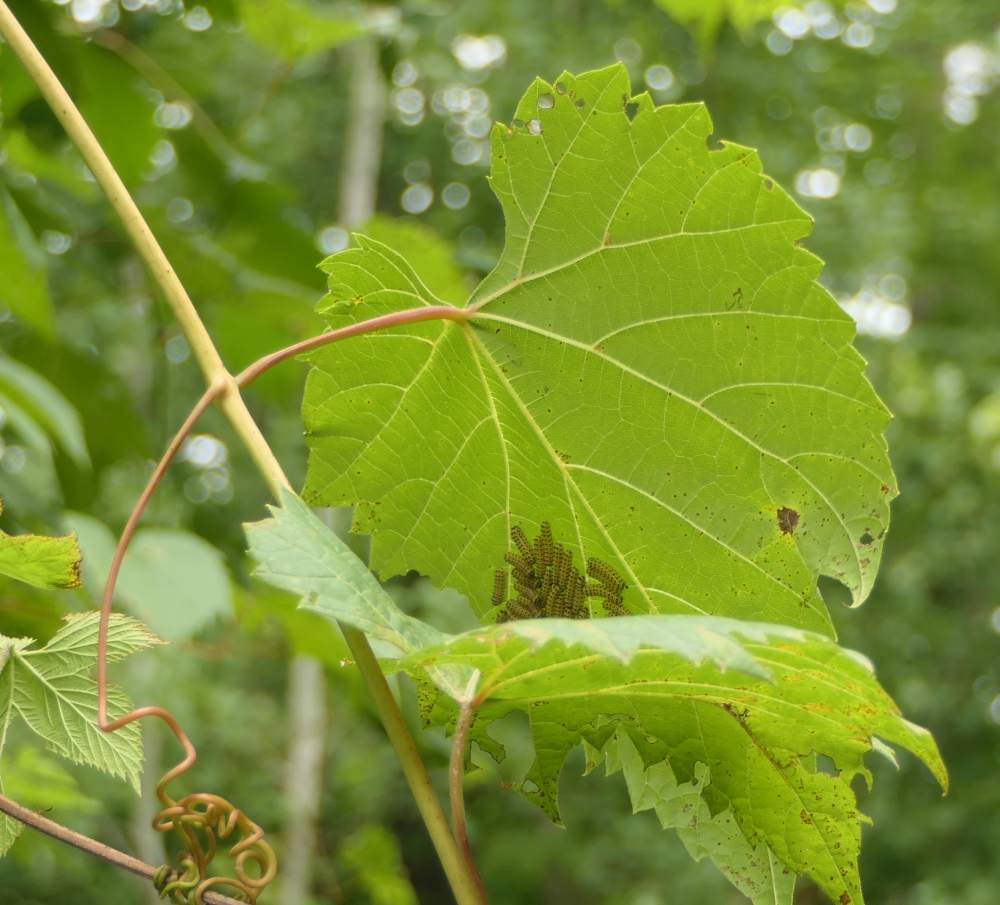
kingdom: Animalia
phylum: Arthropoda
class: Insecta
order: Lepidoptera
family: Zygaenidae
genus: Harrisina
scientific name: Harrisina americana
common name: Grapeleaf skeletonizer moth
